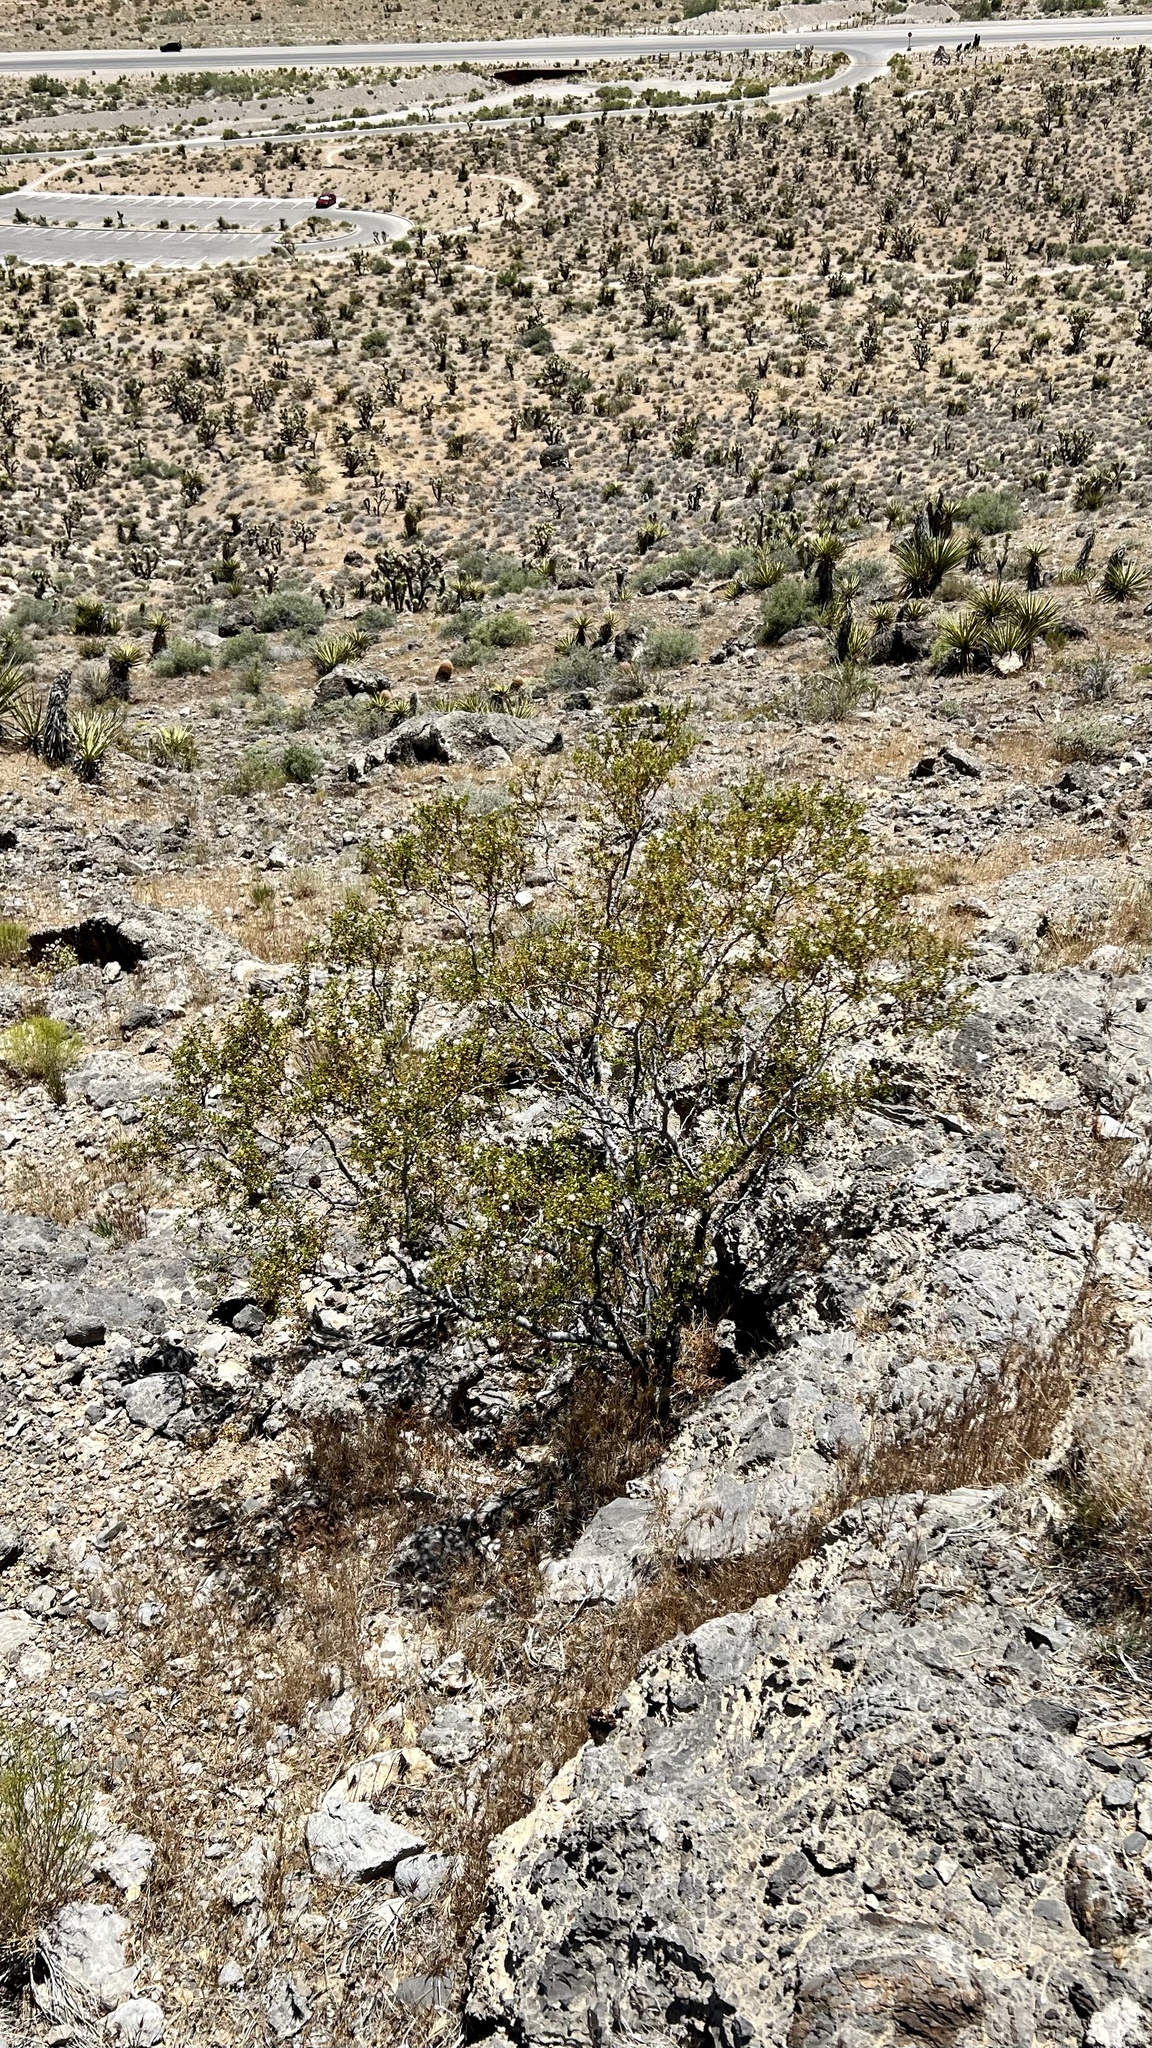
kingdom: Plantae
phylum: Tracheophyta
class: Magnoliopsida
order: Zygophyllales
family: Zygophyllaceae
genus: Larrea
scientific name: Larrea tridentata
